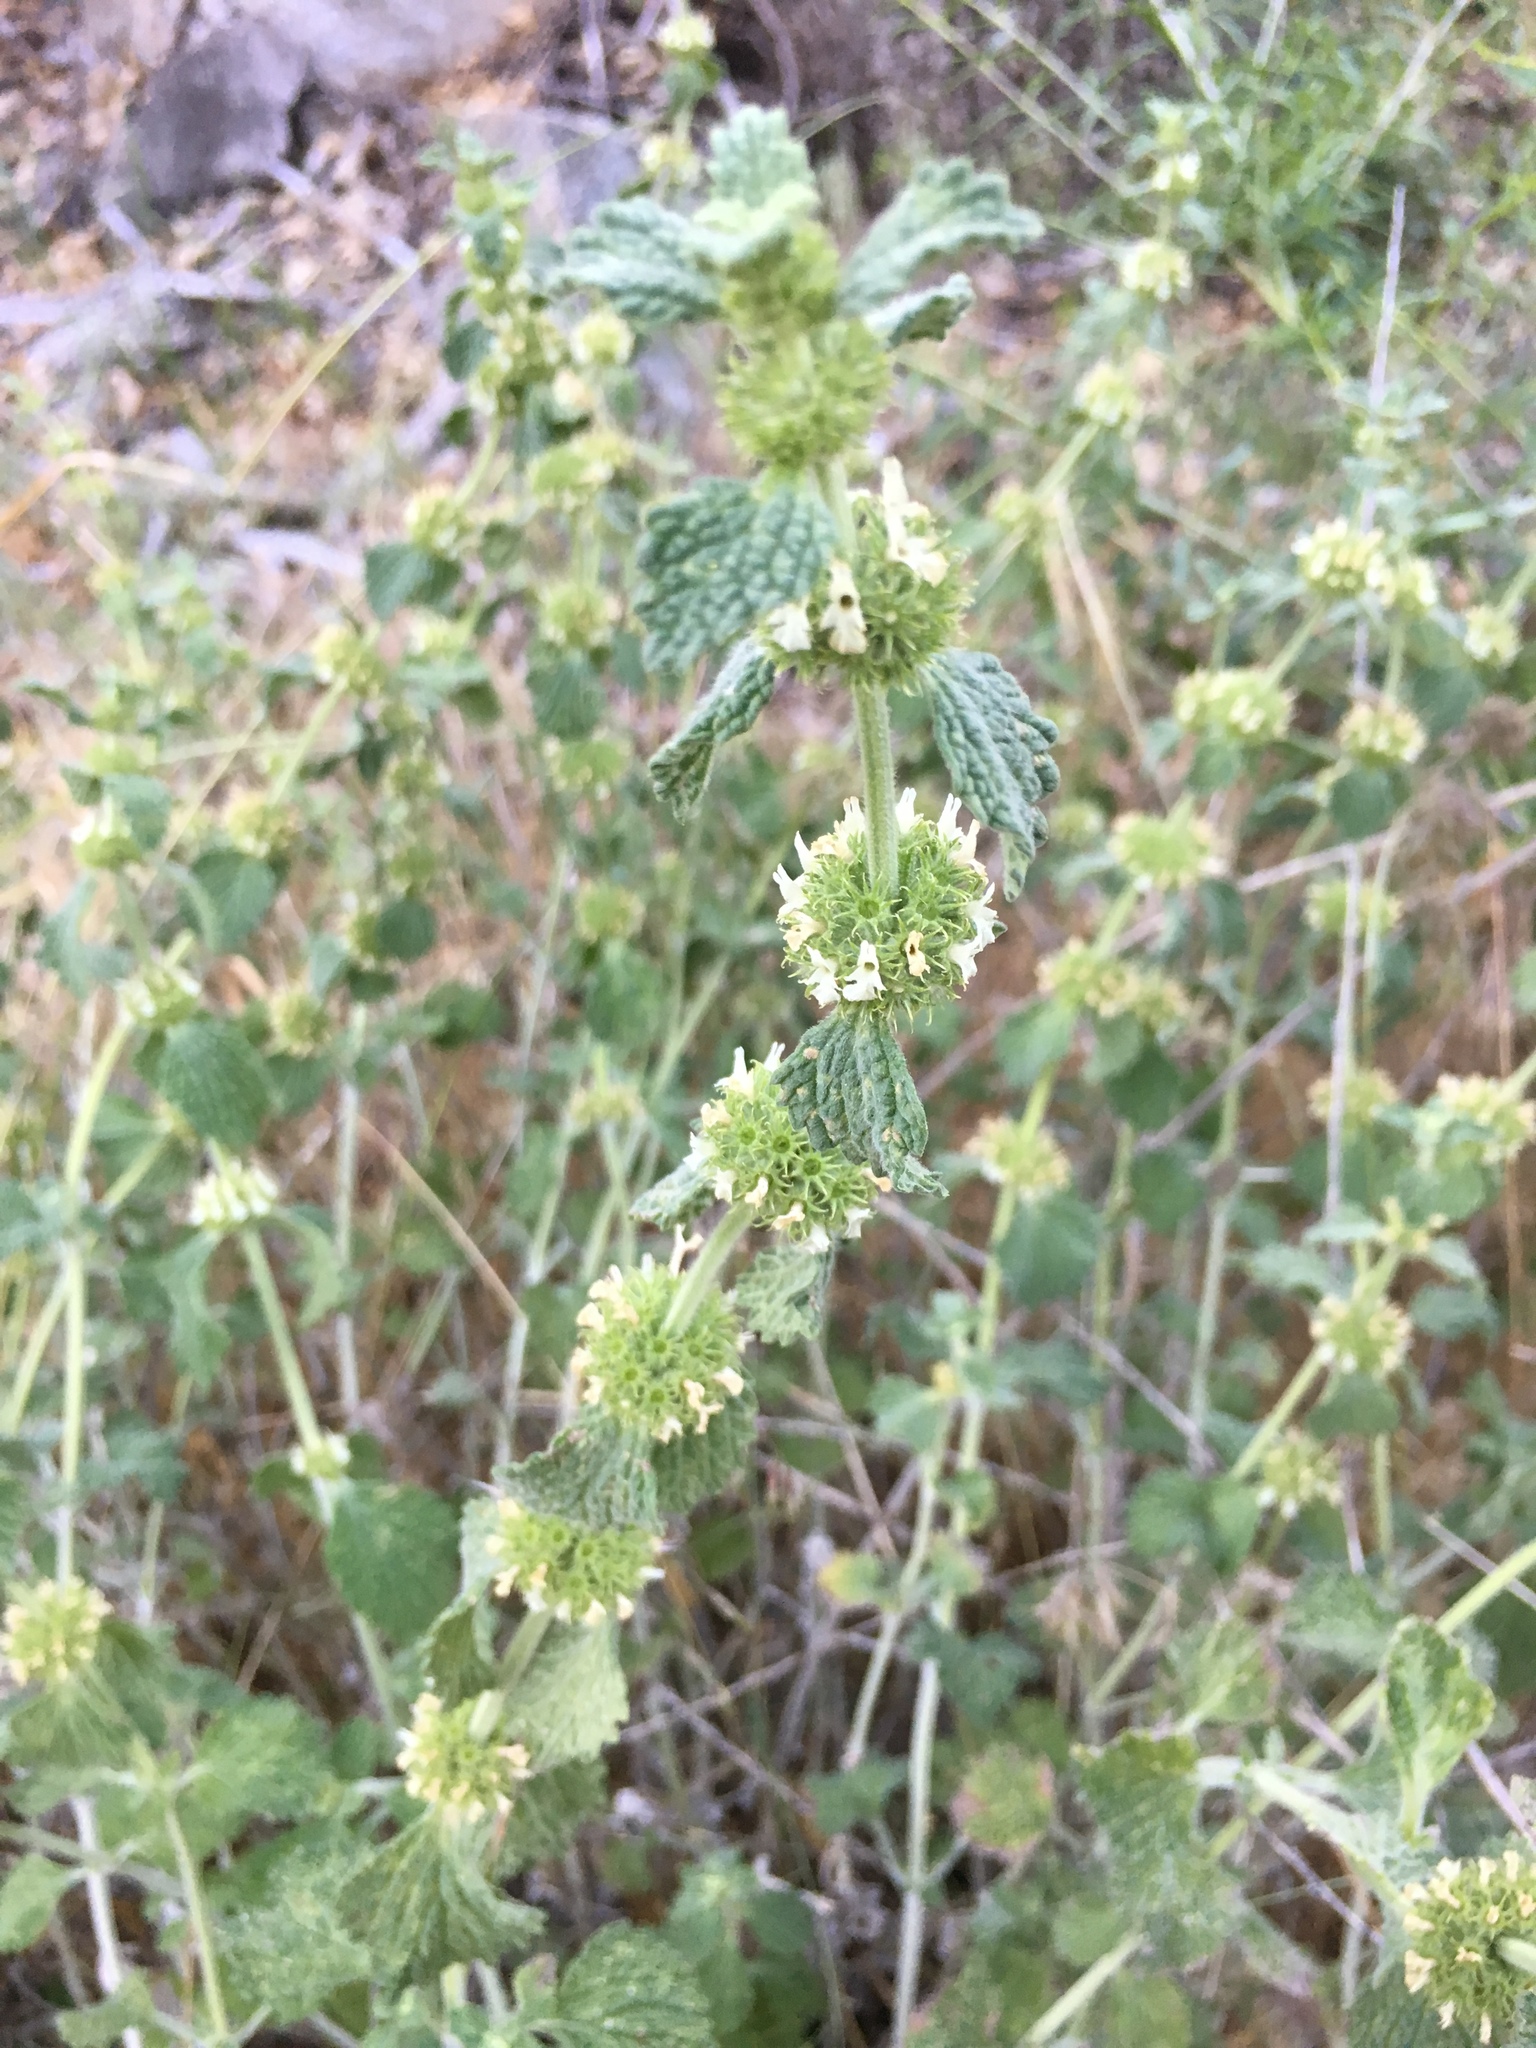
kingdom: Plantae
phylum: Tracheophyta
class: Magnoliopsida
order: Lamiales
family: Lamiaceae
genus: Marrubium
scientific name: Marrubium vulgare
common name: Horehound
